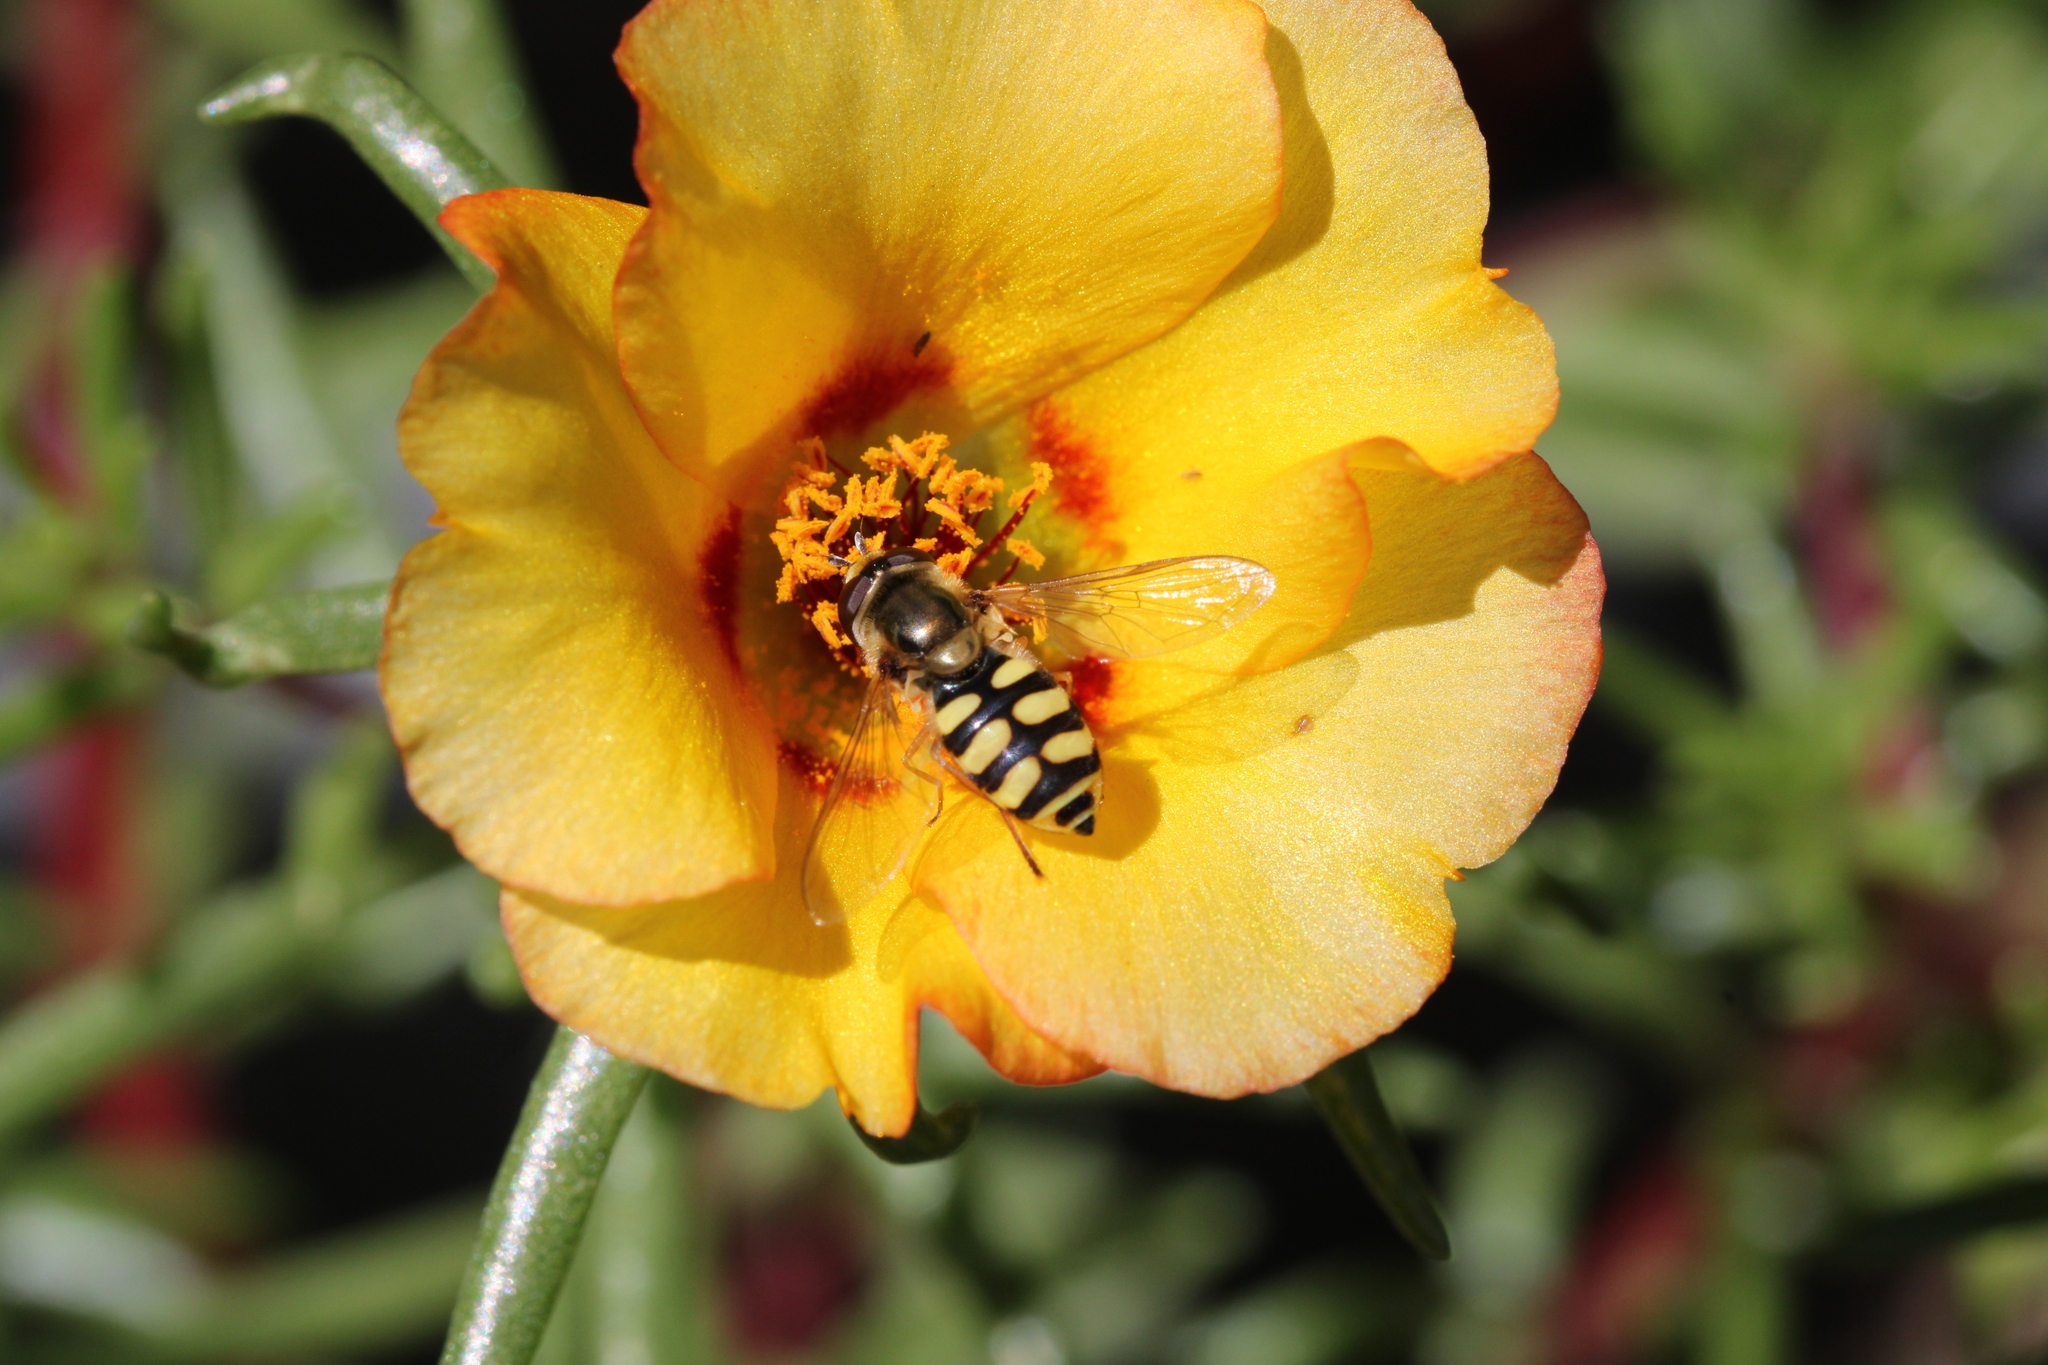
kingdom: Animalia
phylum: Arthropoda
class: Insecta
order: Diptera
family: Syrphidae
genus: Eupeodes
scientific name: Eupeodes corollae
